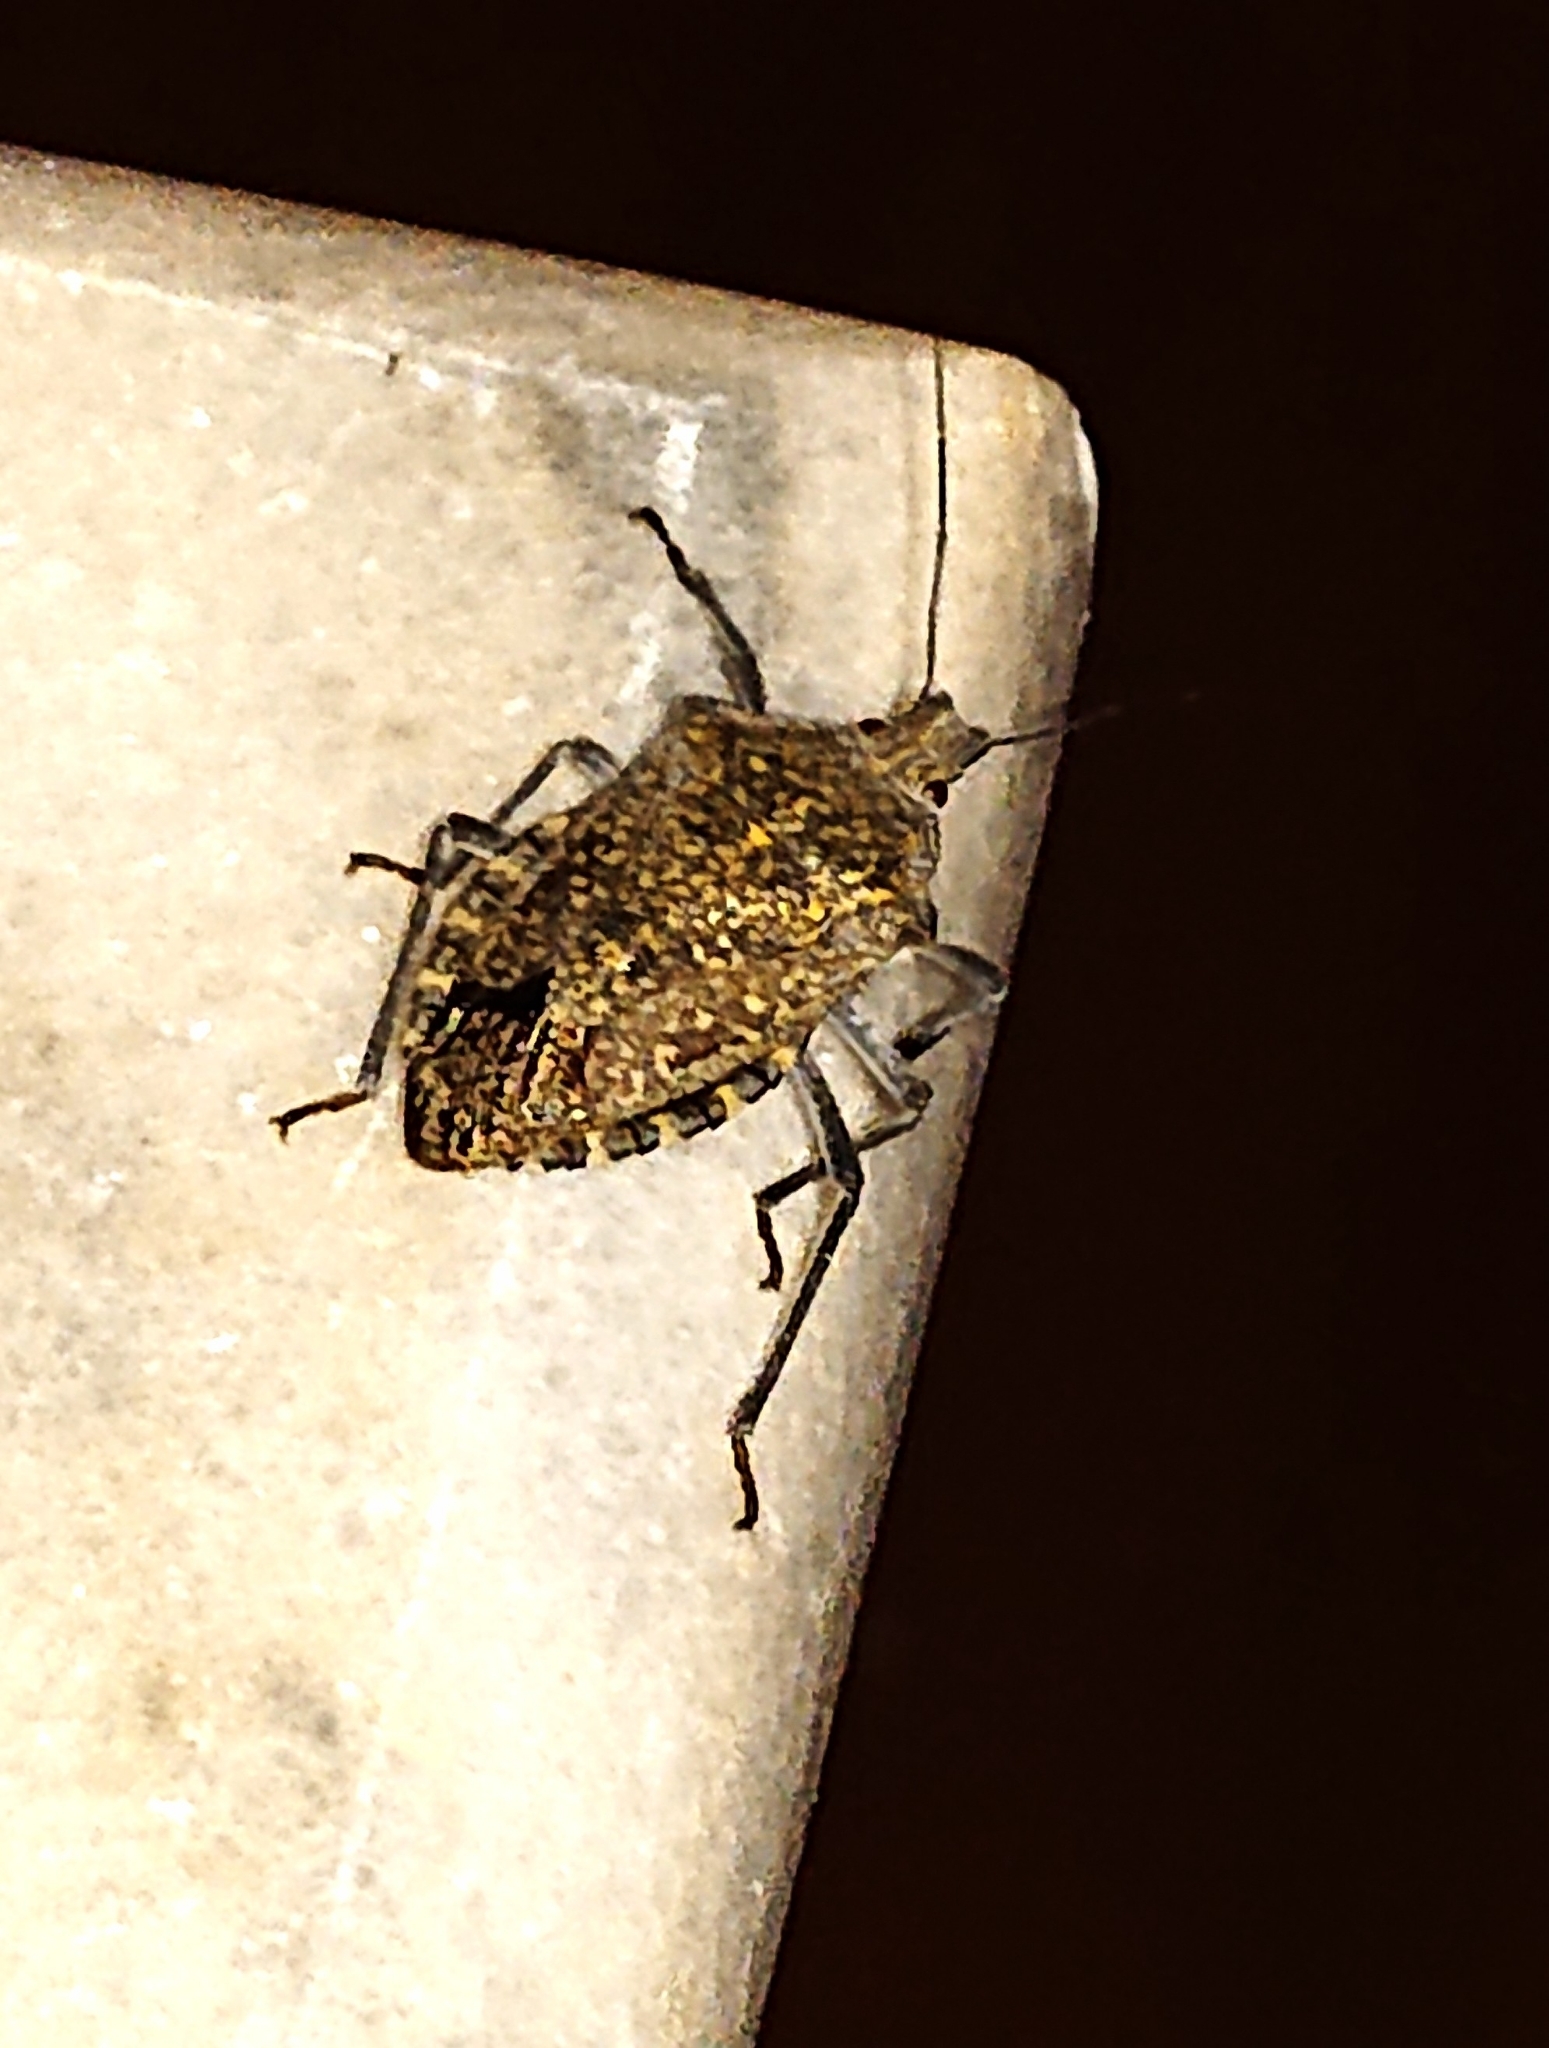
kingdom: Animalia
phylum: Arthropoda
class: Insecta
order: Hemiptera
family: Pentatomidae
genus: Apodiphus
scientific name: Apodiphus amygdali
